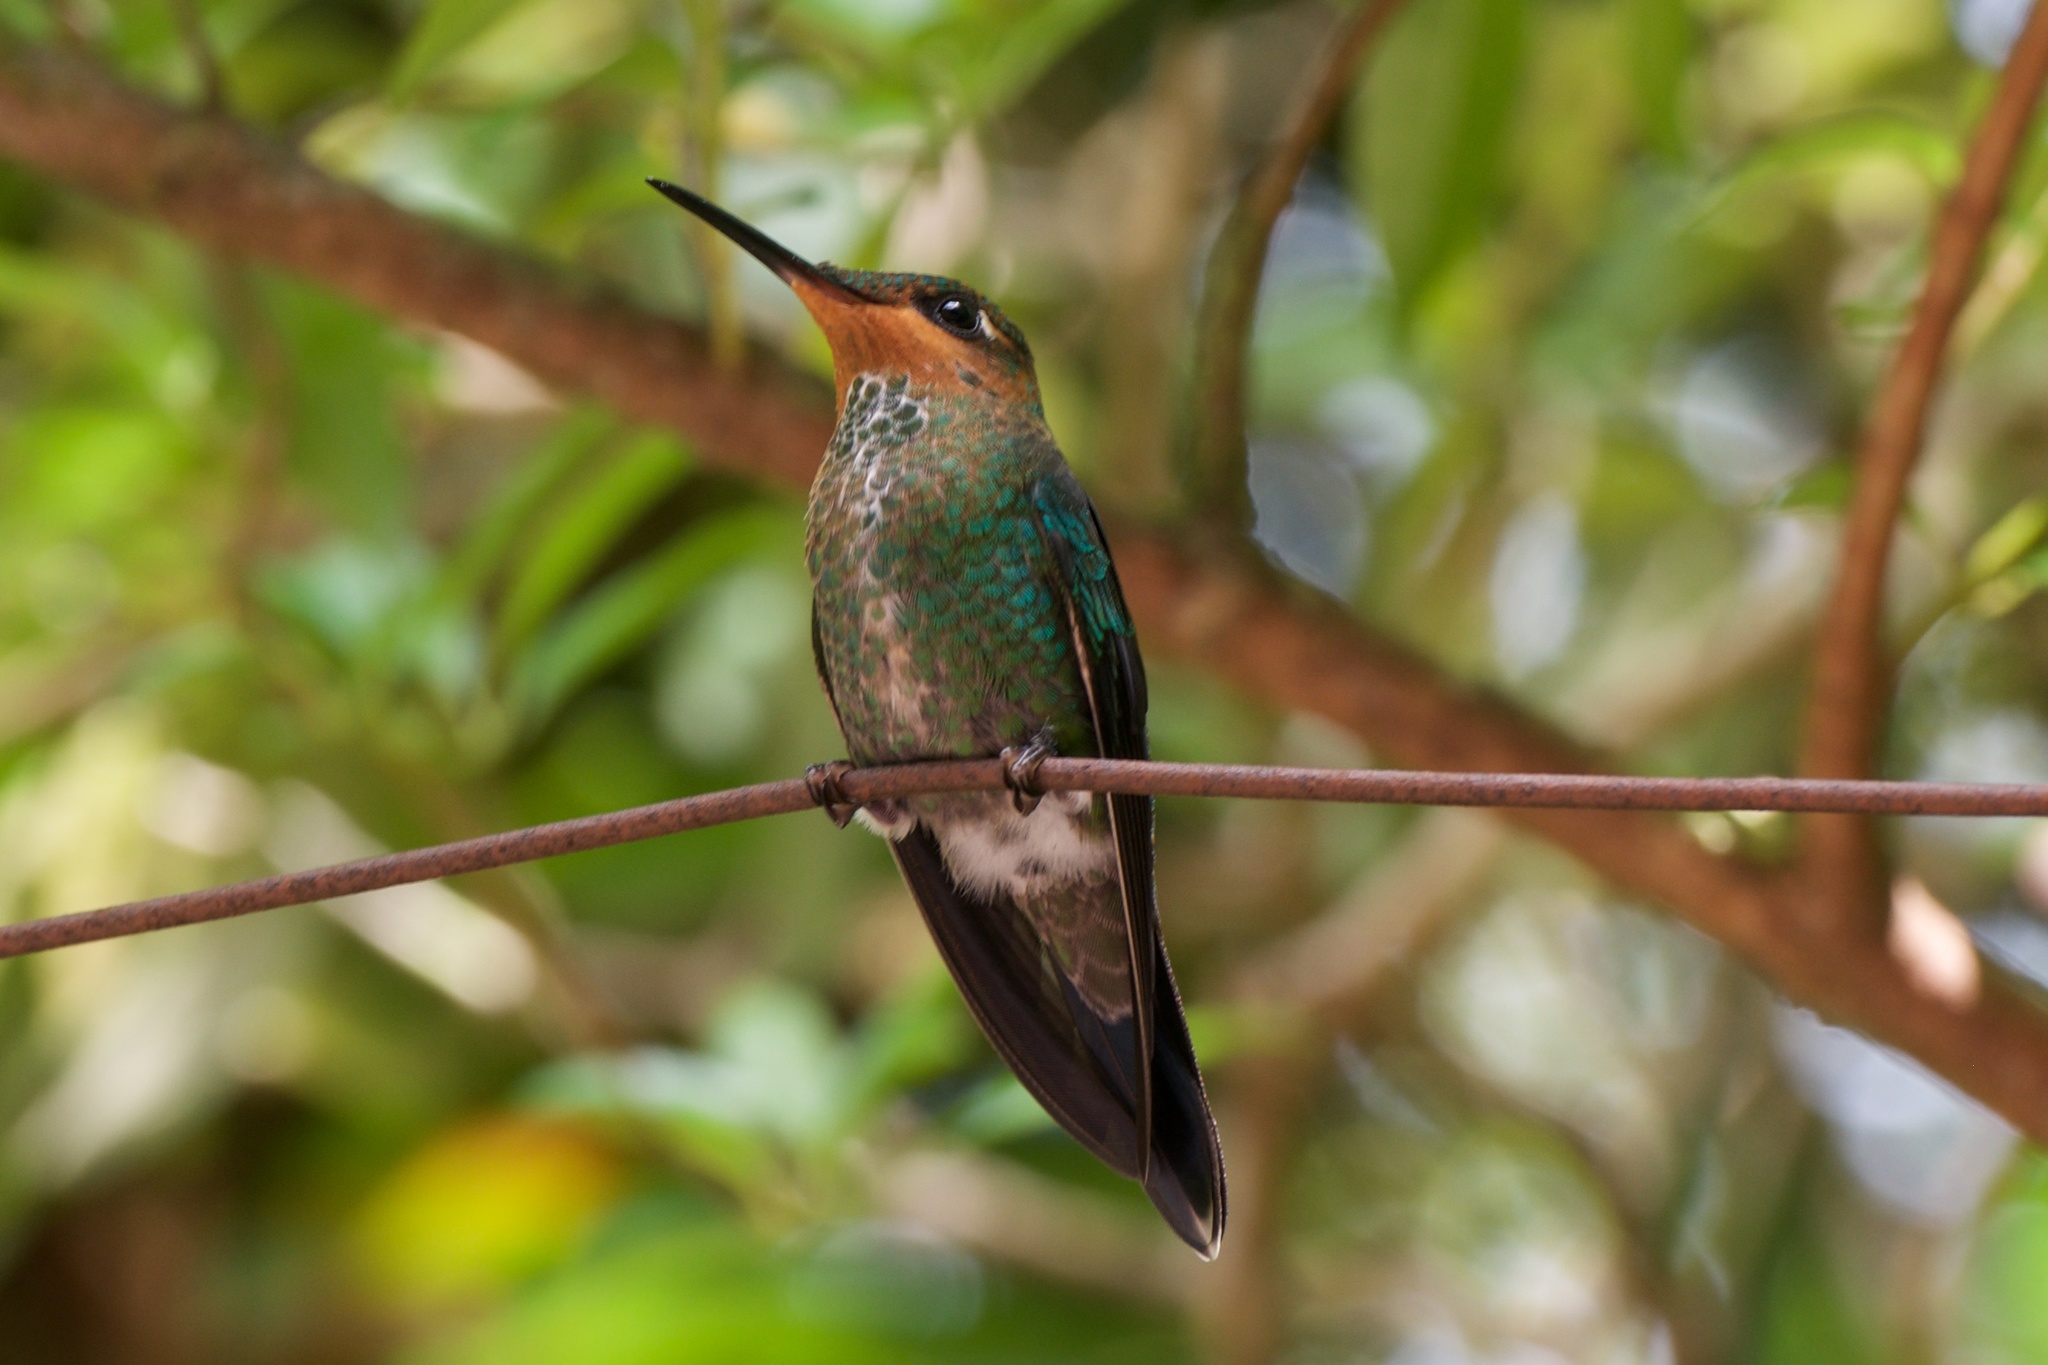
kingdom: Animalia
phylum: Chordata
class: Aves
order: Apodiformes
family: Trochilidae
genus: Heliodoxa
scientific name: Heliodoxa jacula
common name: Green-crowned brilliant
